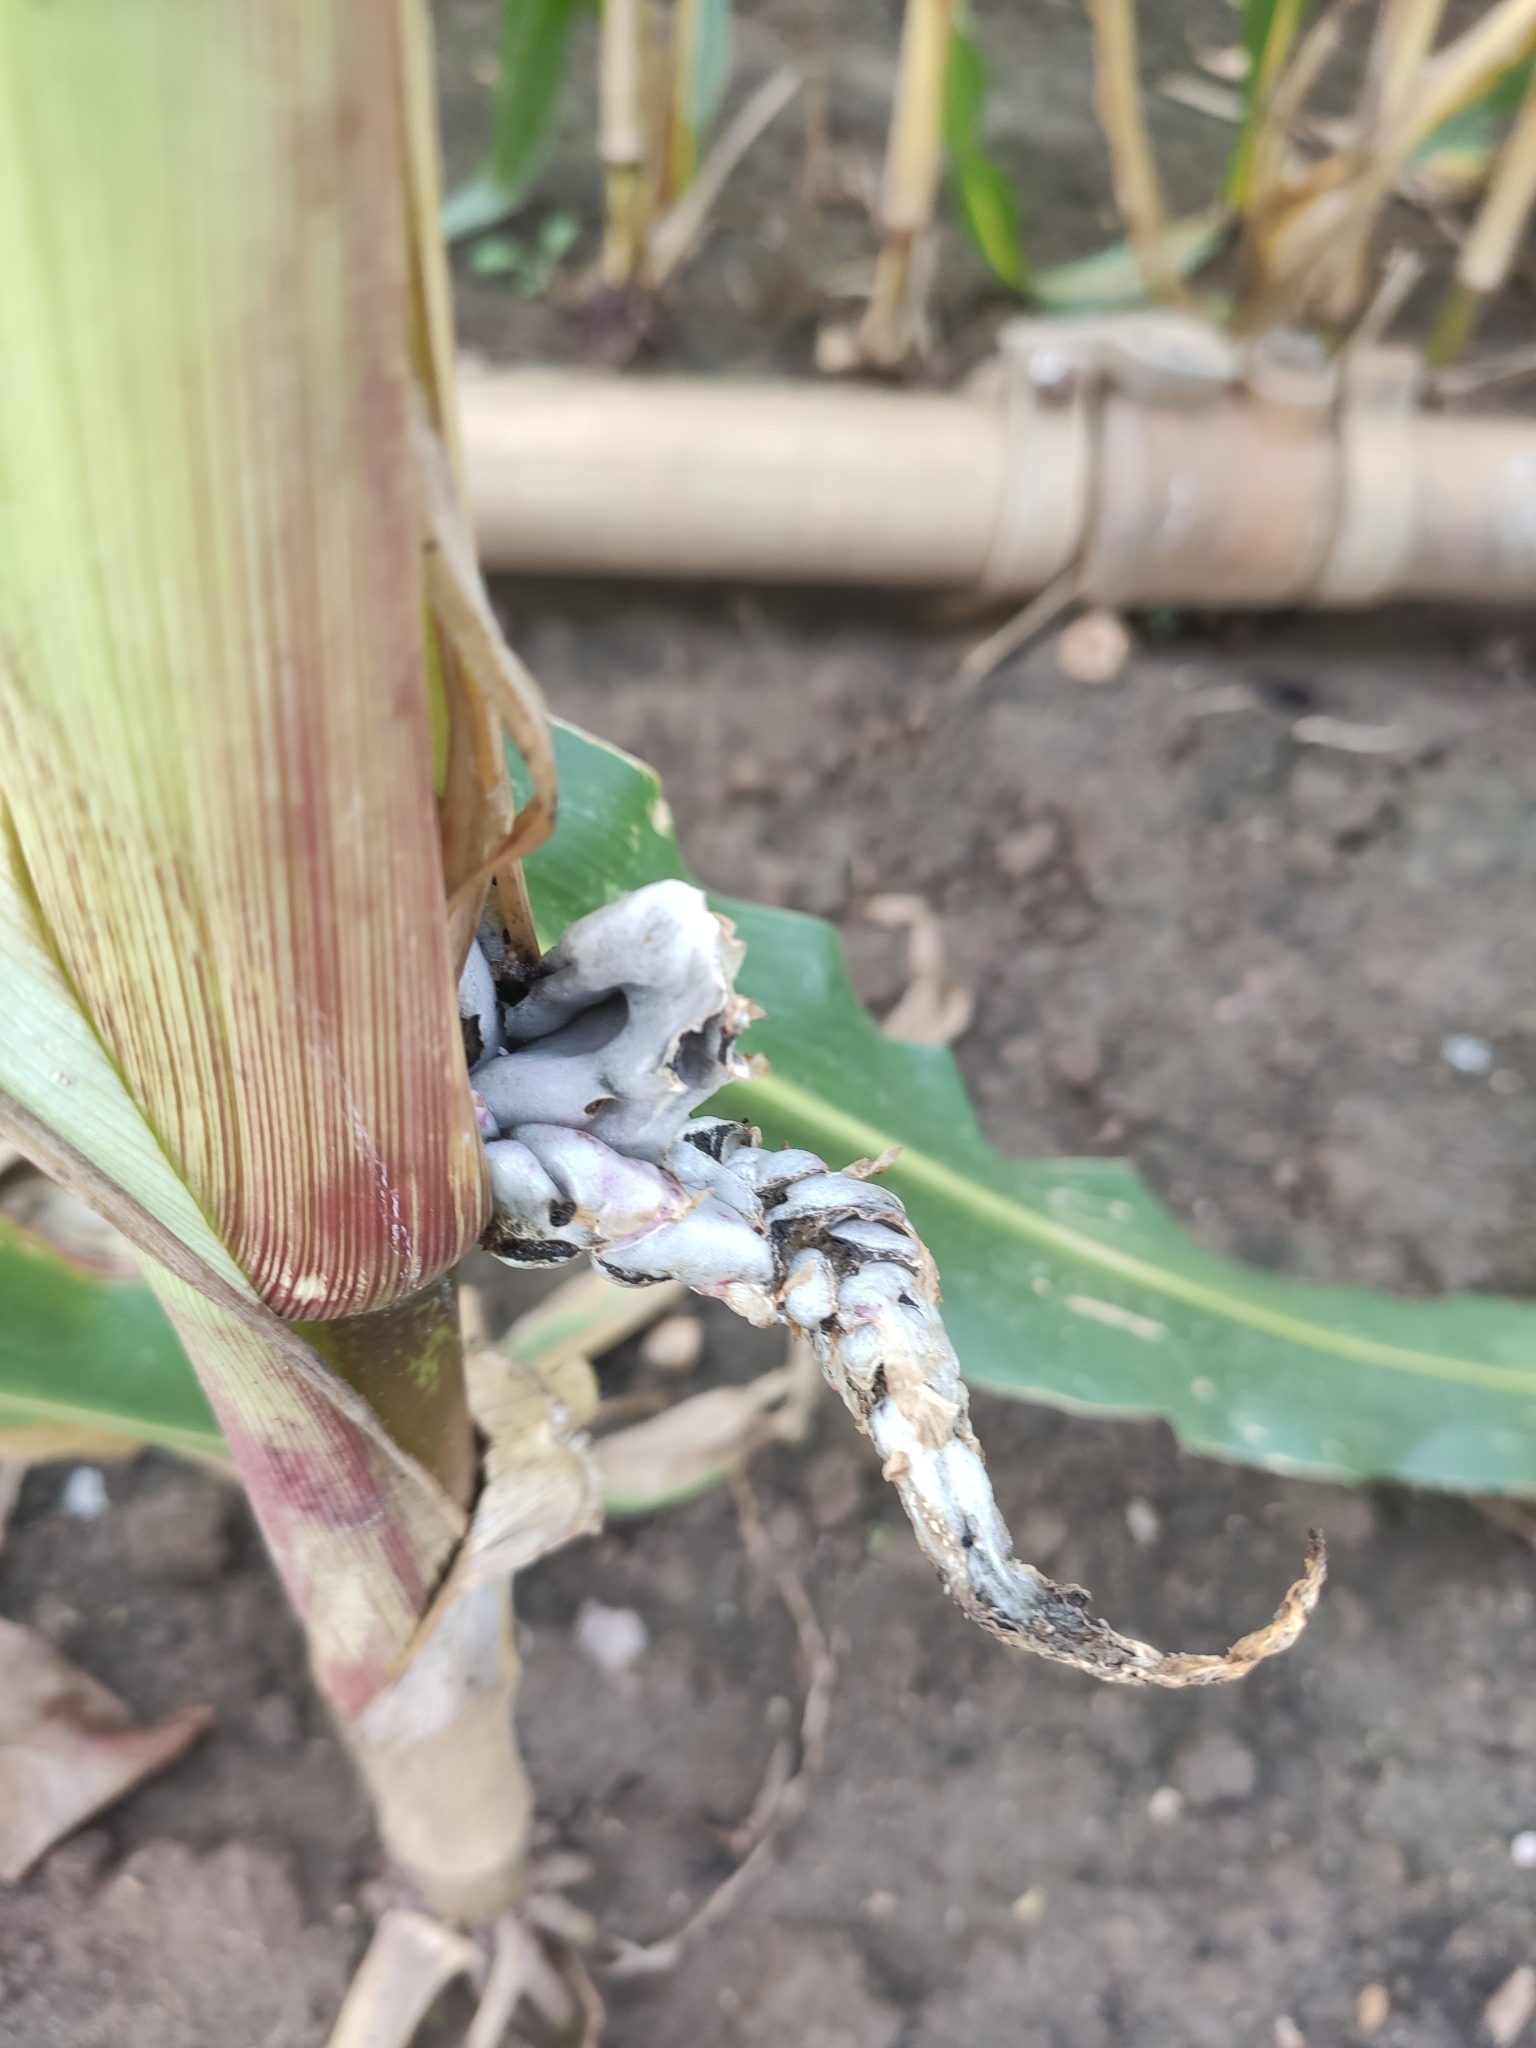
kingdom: Fungi
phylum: Basidiomycota
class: Ustilaginomycetes
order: Ustilaginales
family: Ustilaginaceae
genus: Mycosarcoma
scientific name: Mycosarcoma maydis
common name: Corn smut
